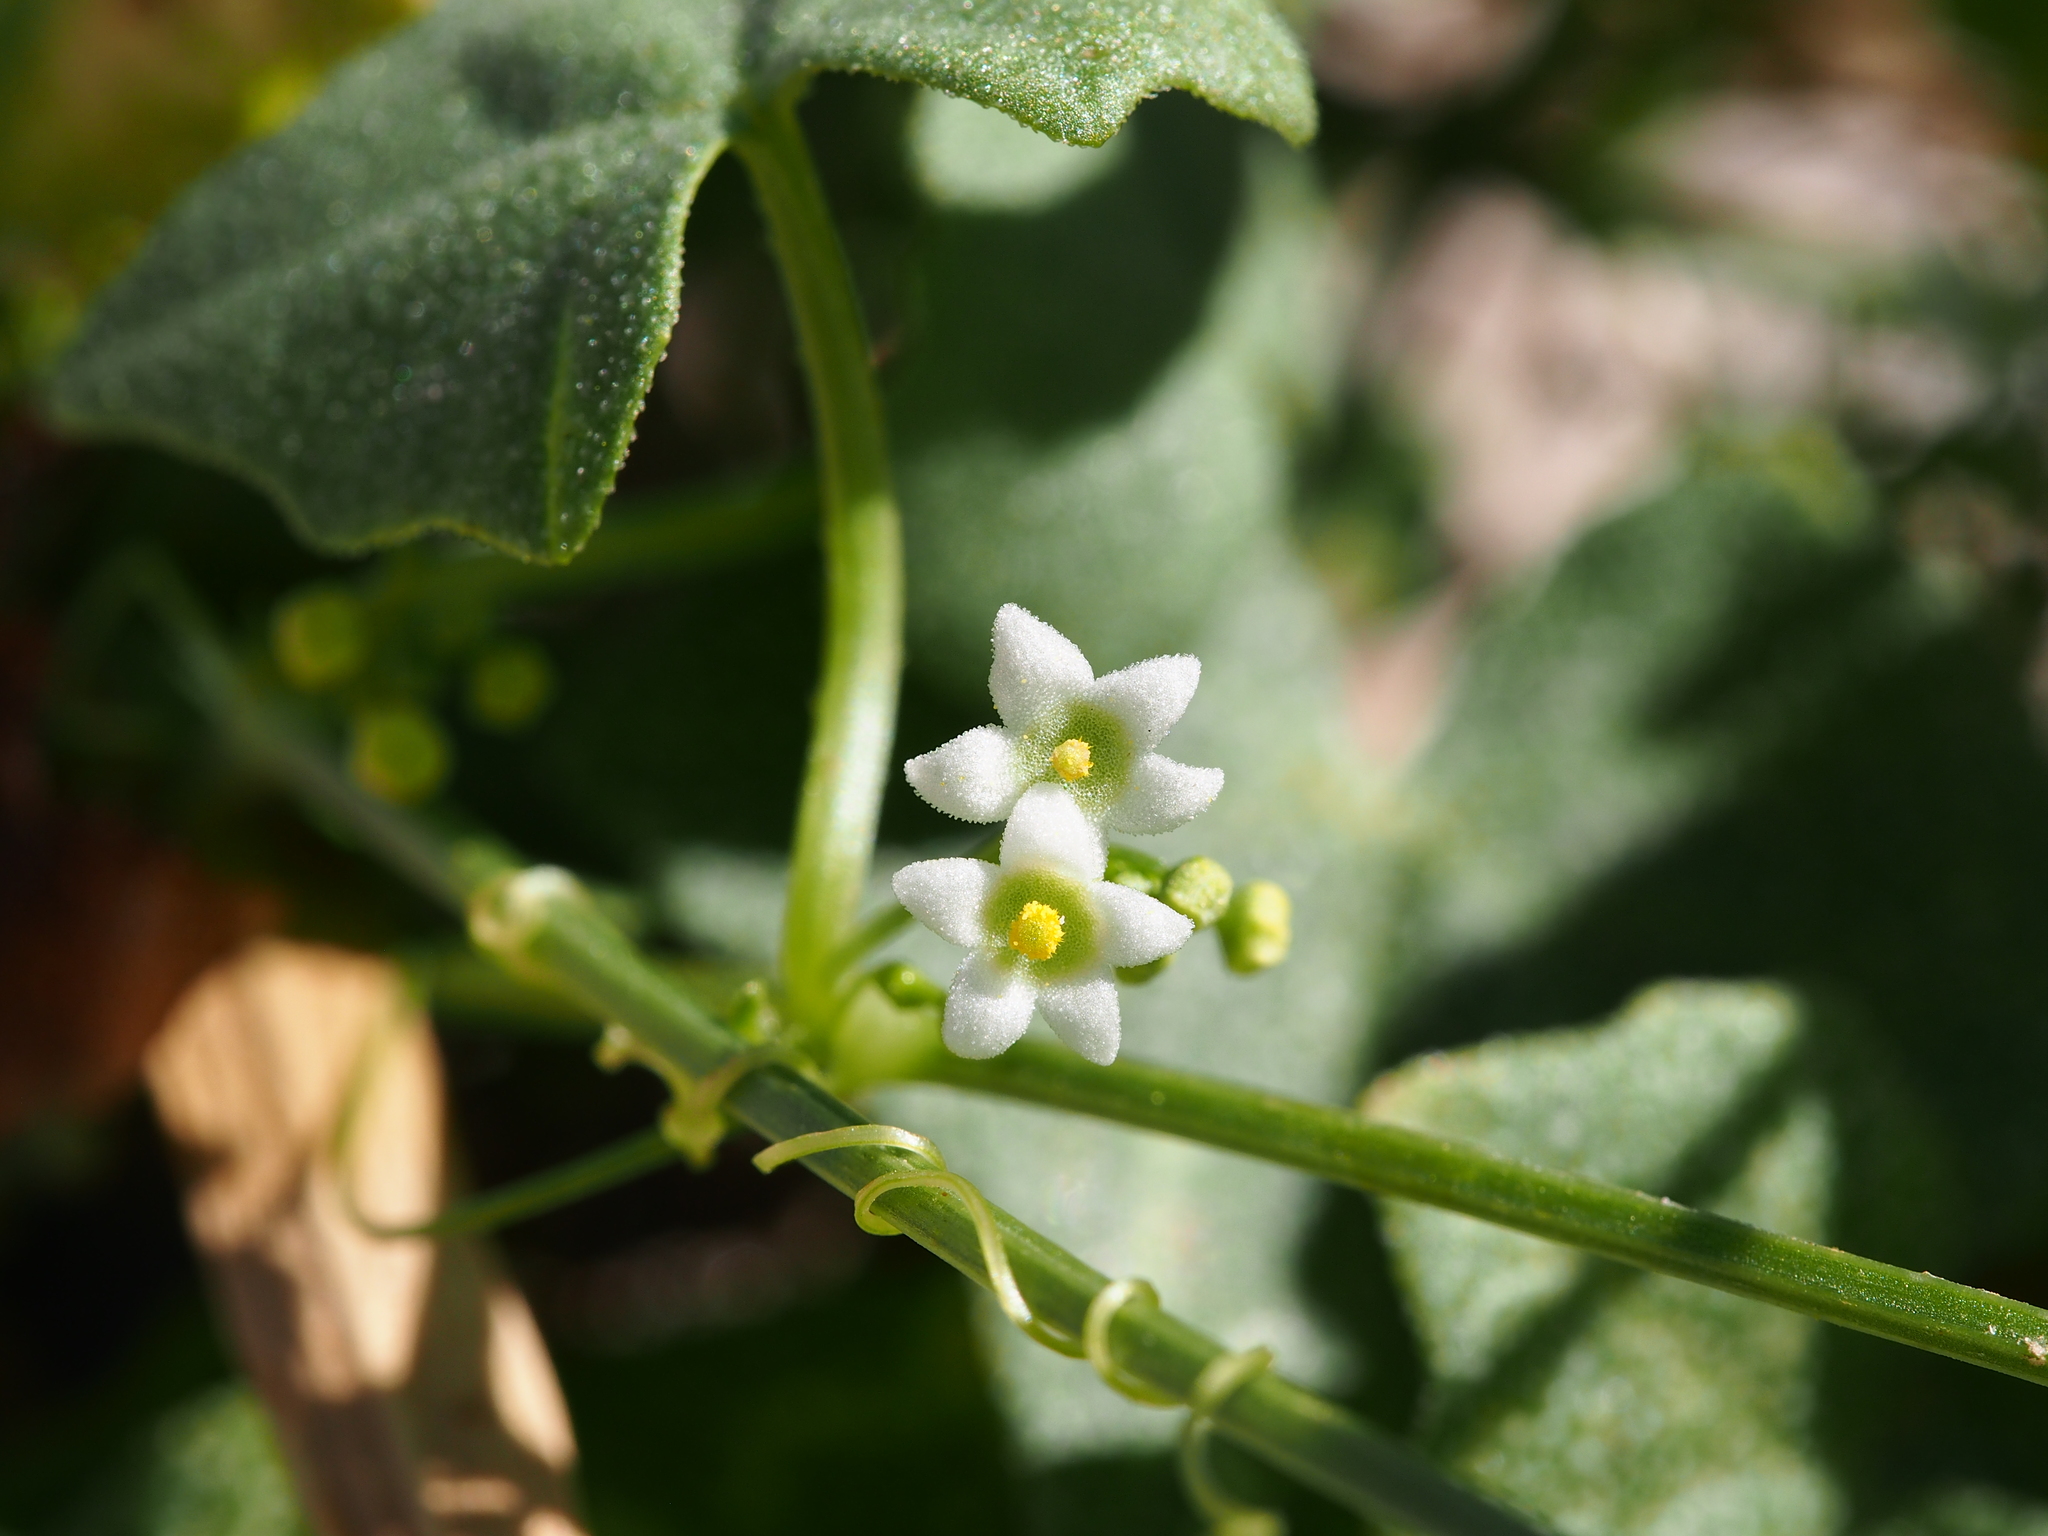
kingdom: Plantae
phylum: Tracheophyta
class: Magnoliopsida
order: Cucurbitales
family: Cucurbitaceae
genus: Echinopepon
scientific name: Echinopepon bigelovii
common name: Desert starvine
